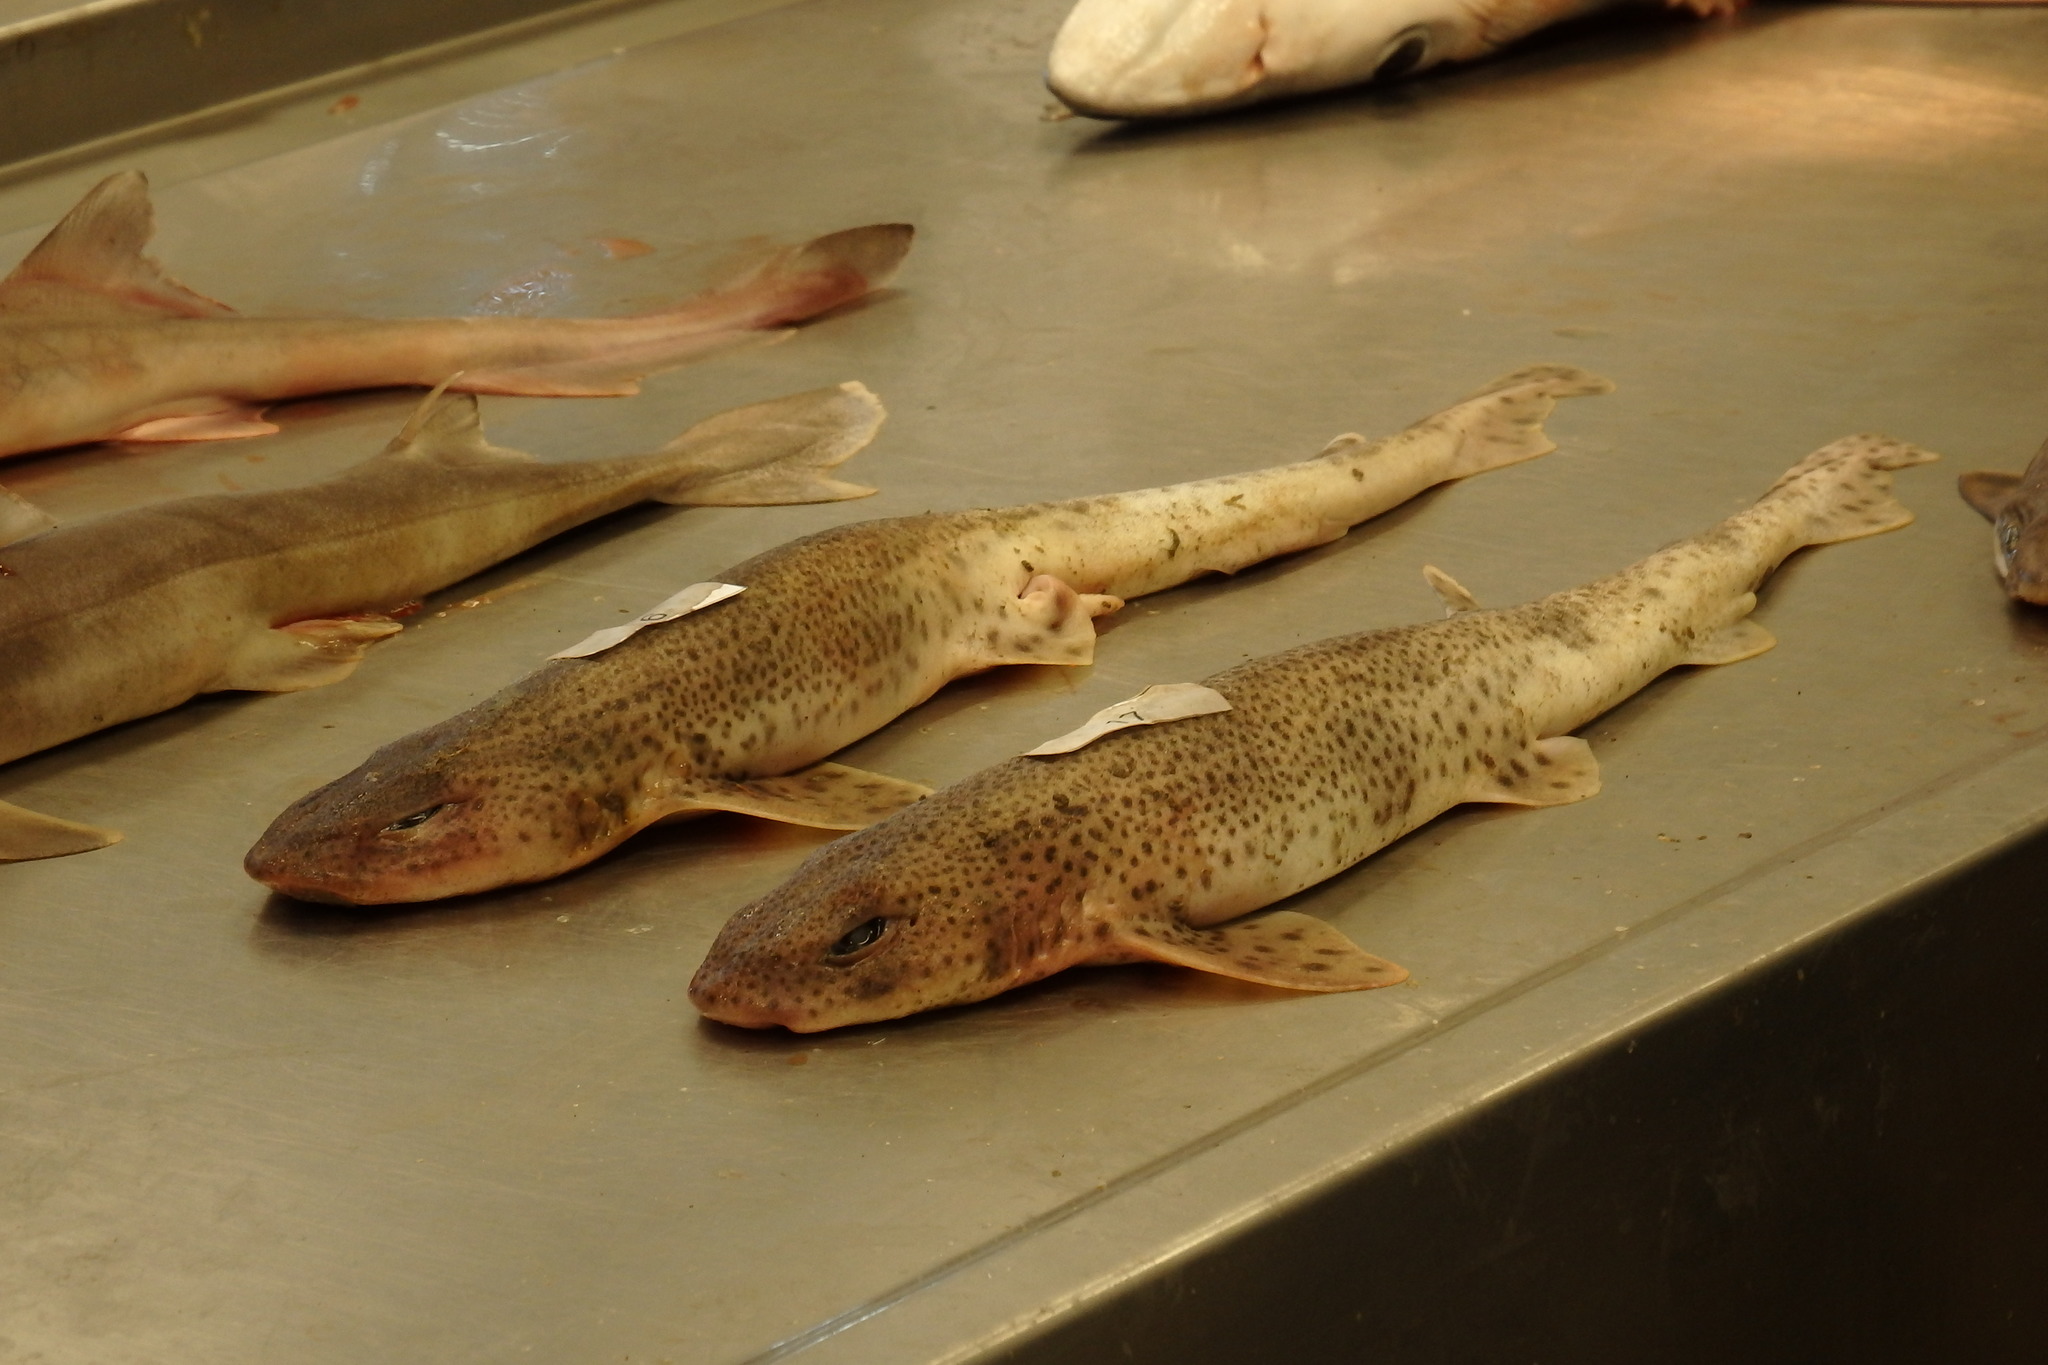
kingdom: Animalia
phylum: Chordata
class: Elasmobranchii
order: Carcharhiniformes
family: Scyliorhinidae
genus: Scyliorhinus
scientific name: Scyliorhinus canicula
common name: Lesser spotted dogfish
